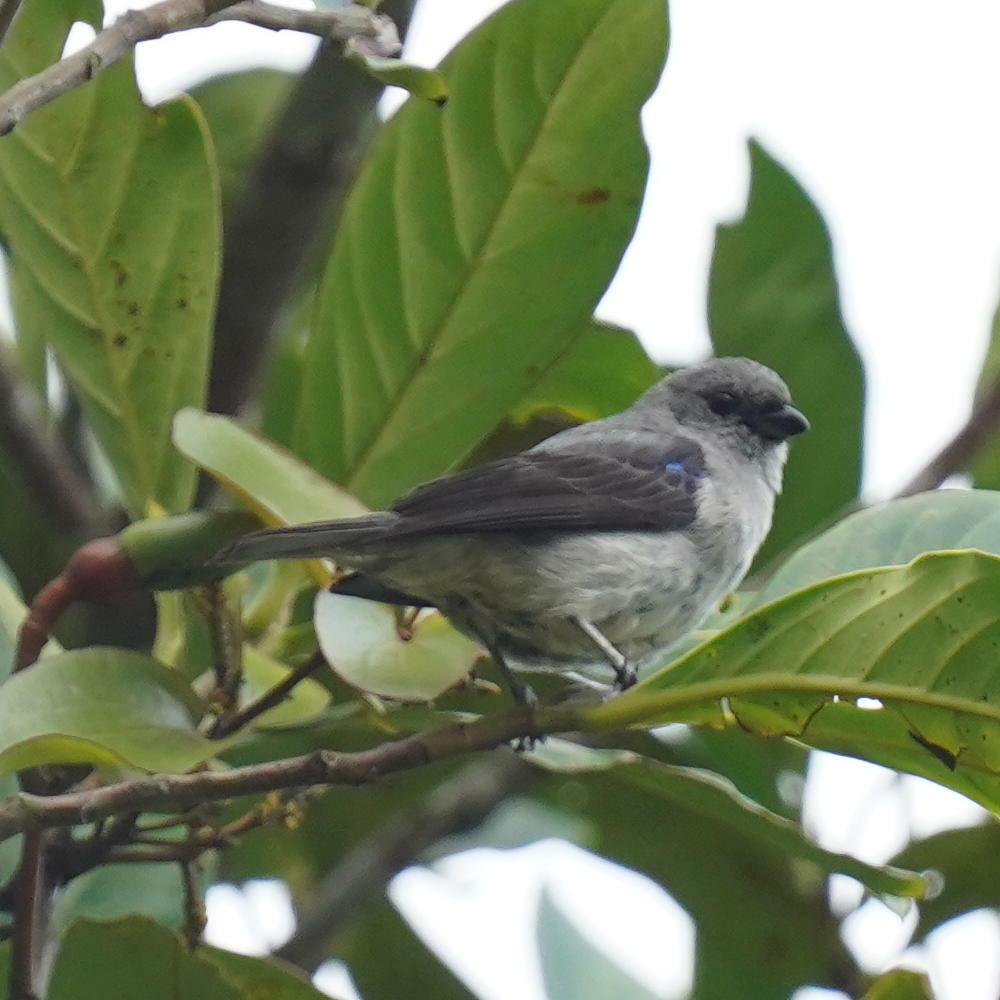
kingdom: Animalia
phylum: Chordata
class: Aves
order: Passeriformes
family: Thraupidae
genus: Tangara
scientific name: Tangara inornata
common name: Plain-colored tanager
